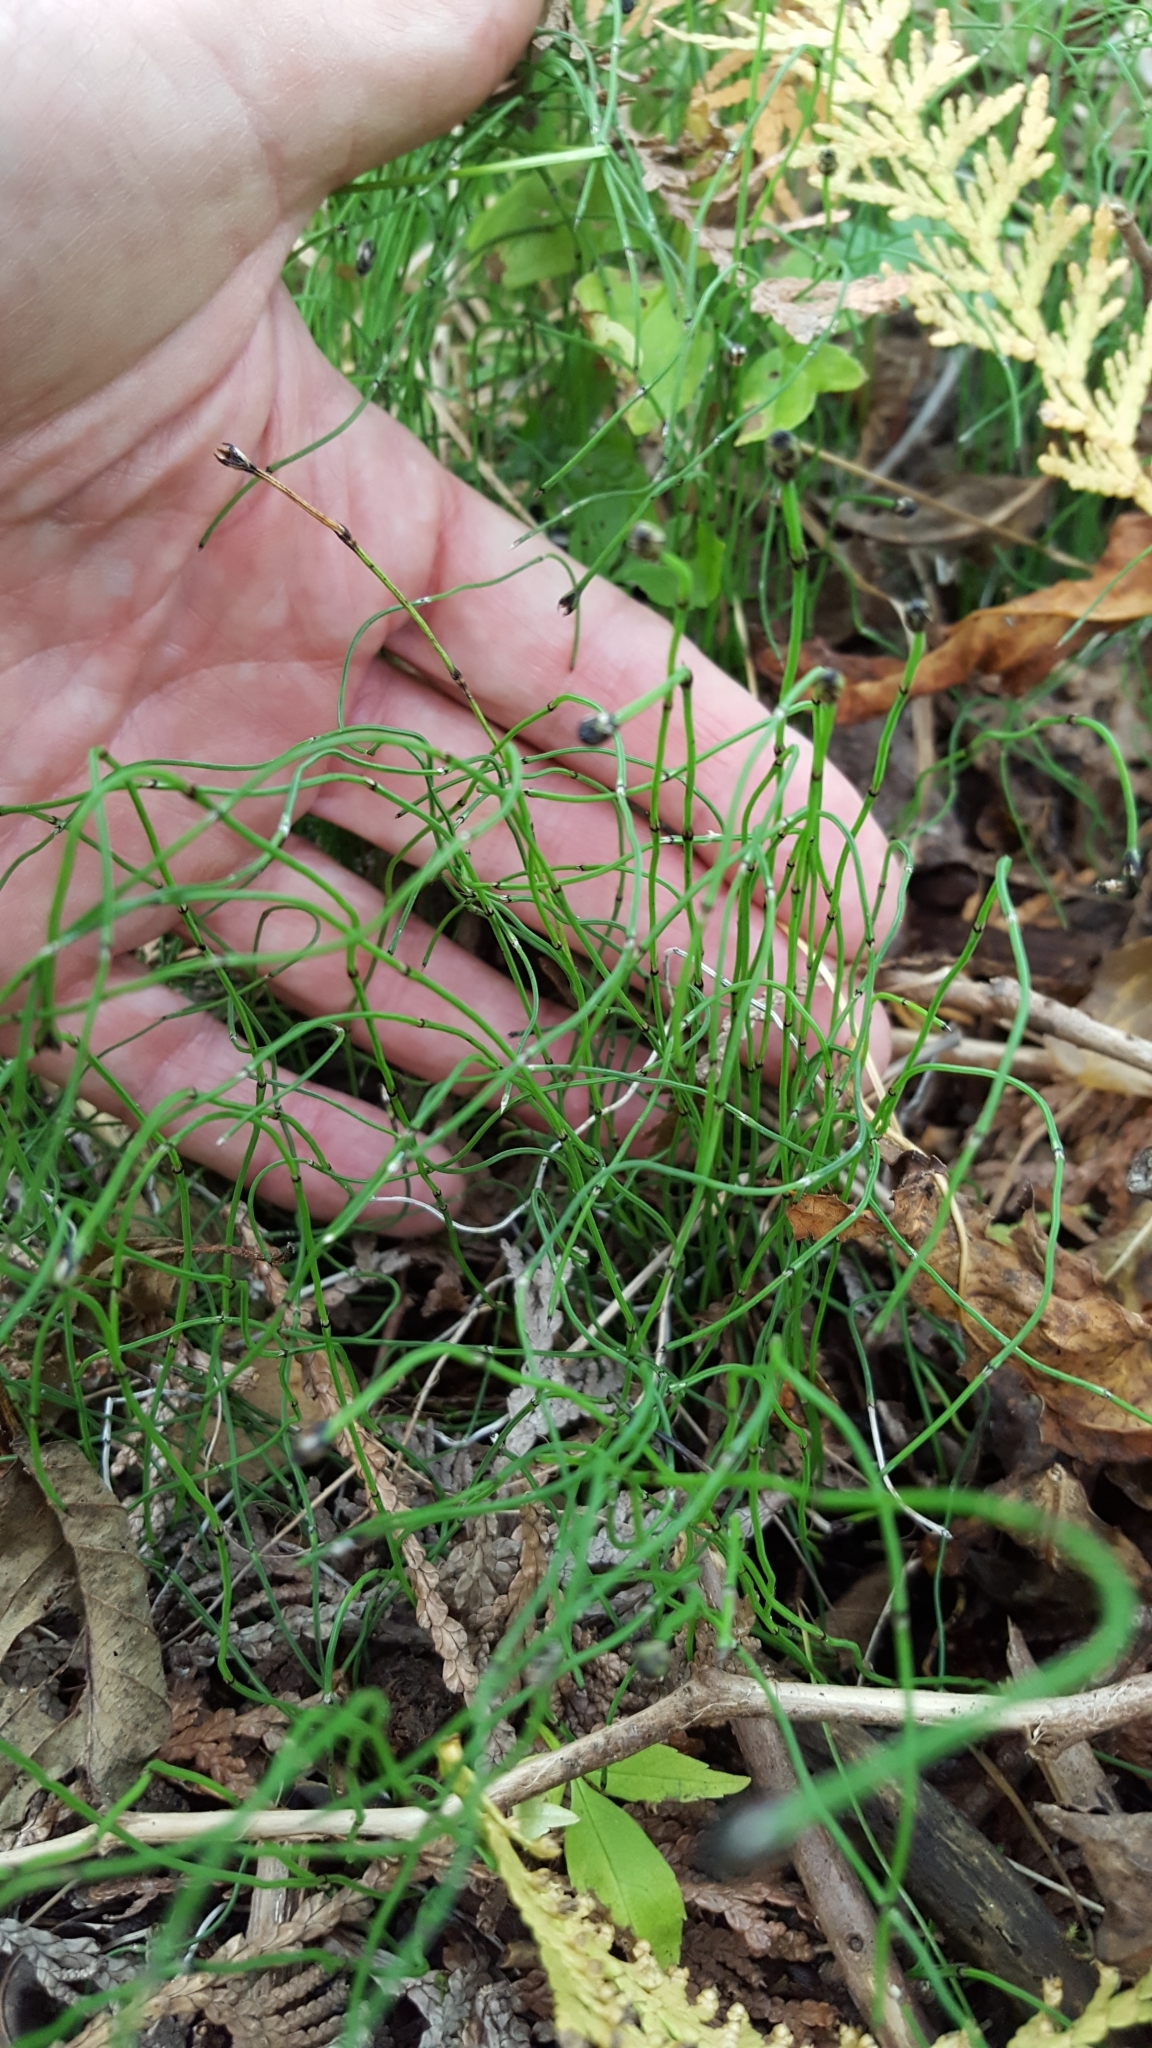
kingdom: Plantae
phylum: Tracheophyta
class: Polypodiopsida
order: Equisetales
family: Equisetaceae
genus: Equisetum
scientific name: Equisetum scirpoides
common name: Delicate horsetail
